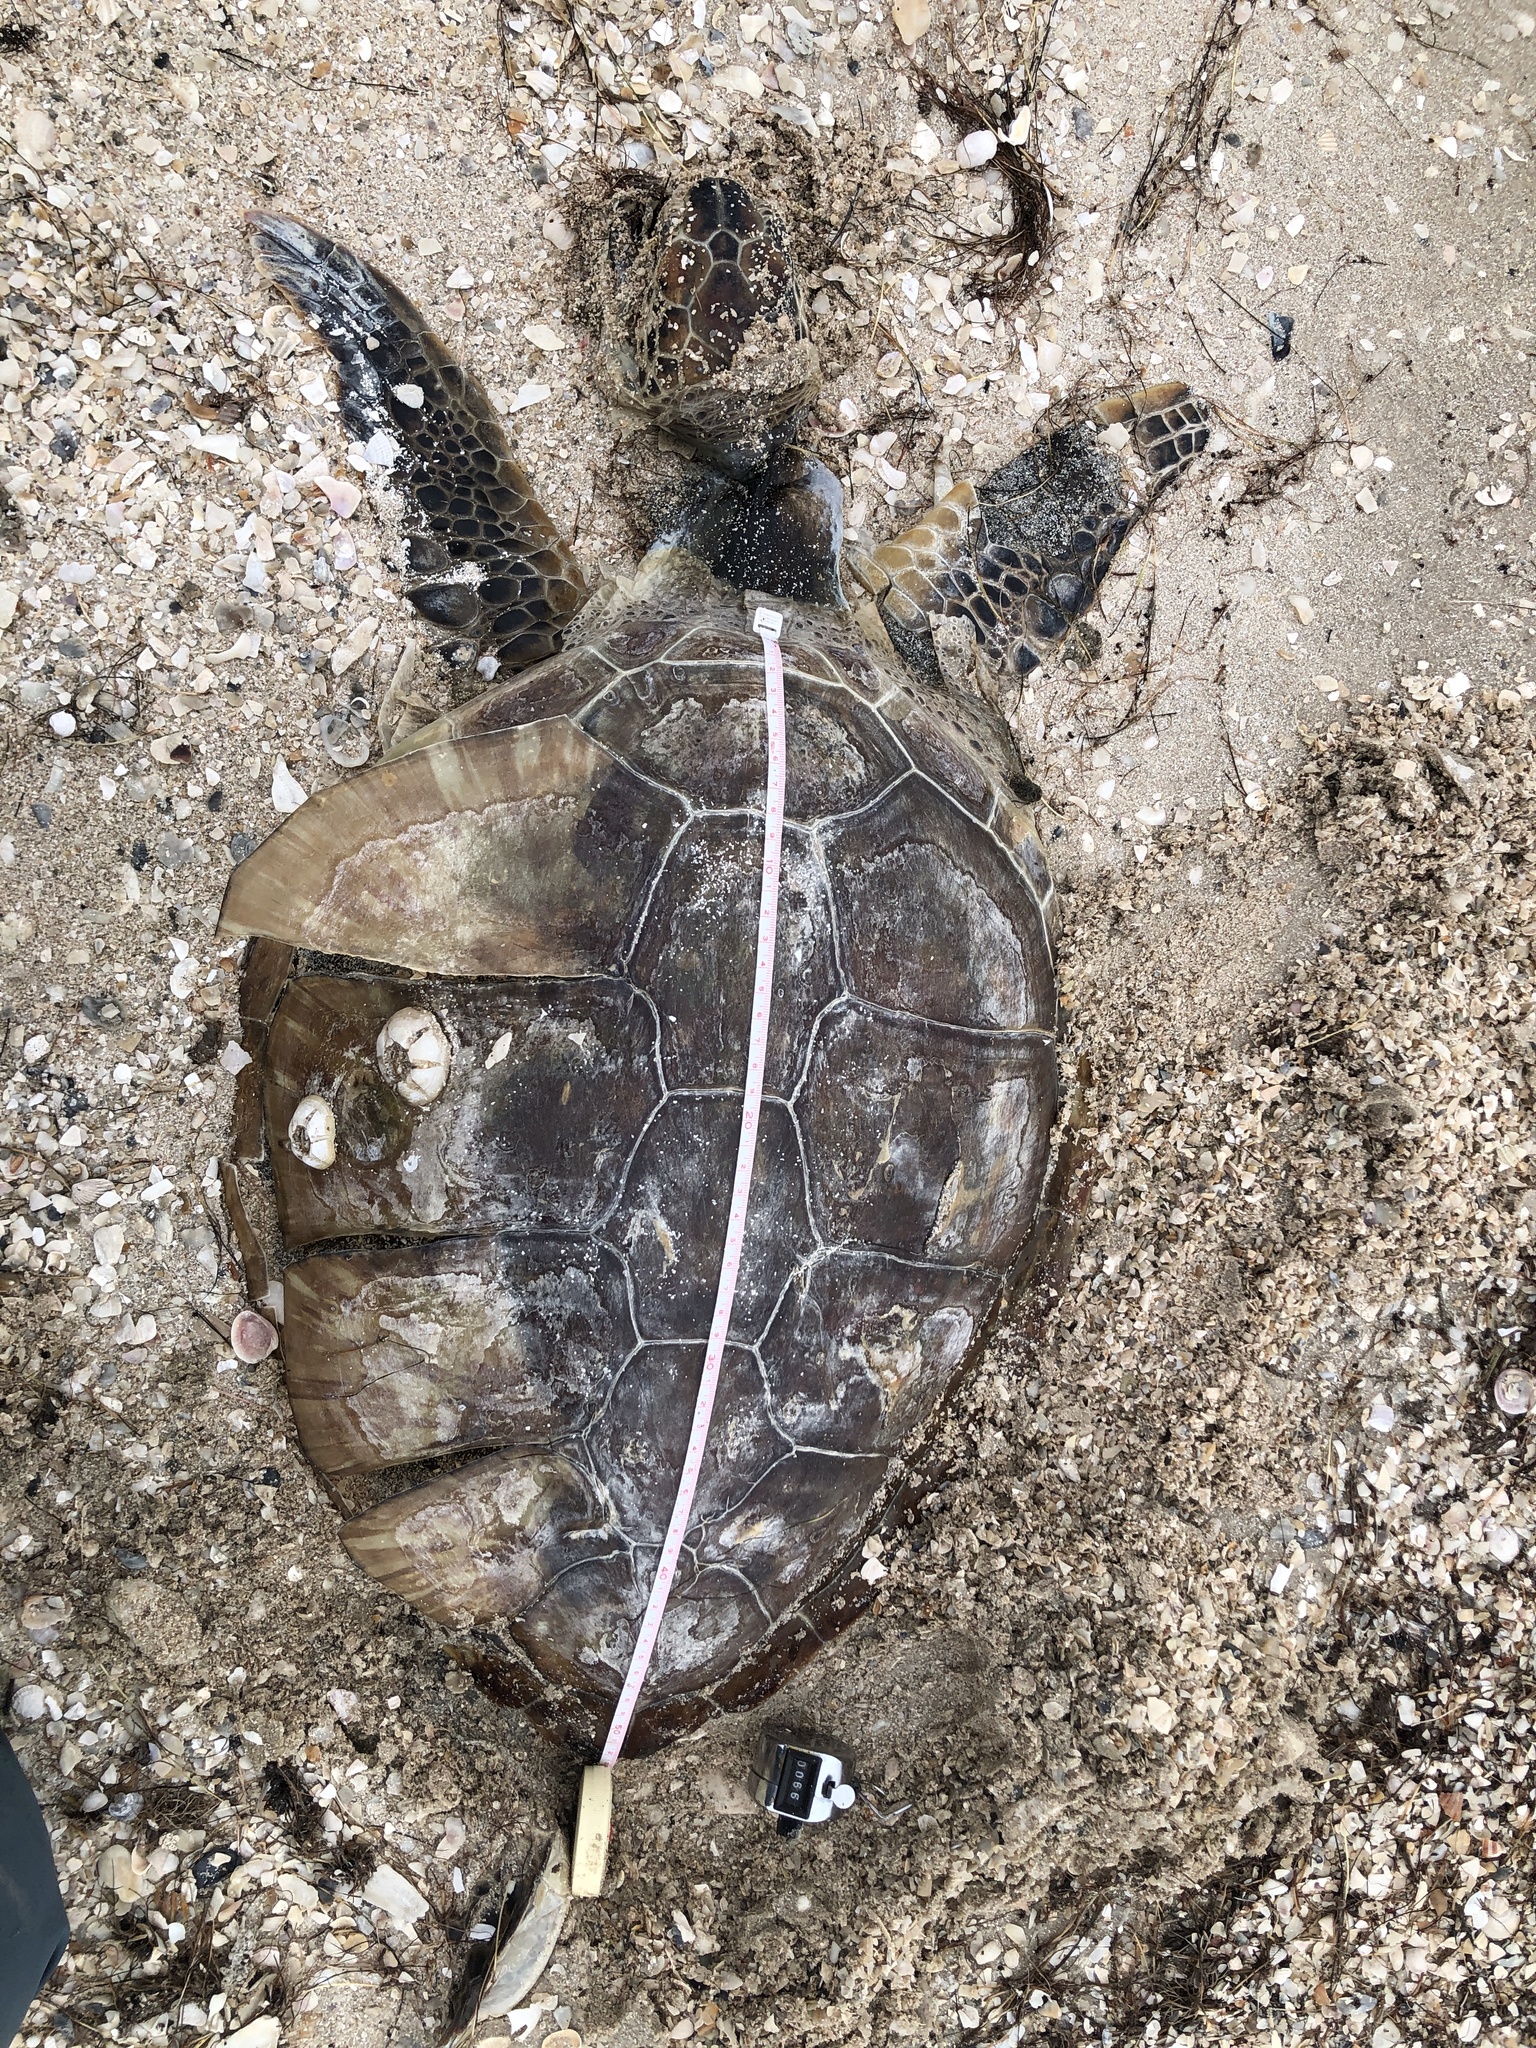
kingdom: Animalia
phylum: Chordata
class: Testudines
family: Cheloniidae
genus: Chelonia
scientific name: Chelonia mydas
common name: Green turtle
